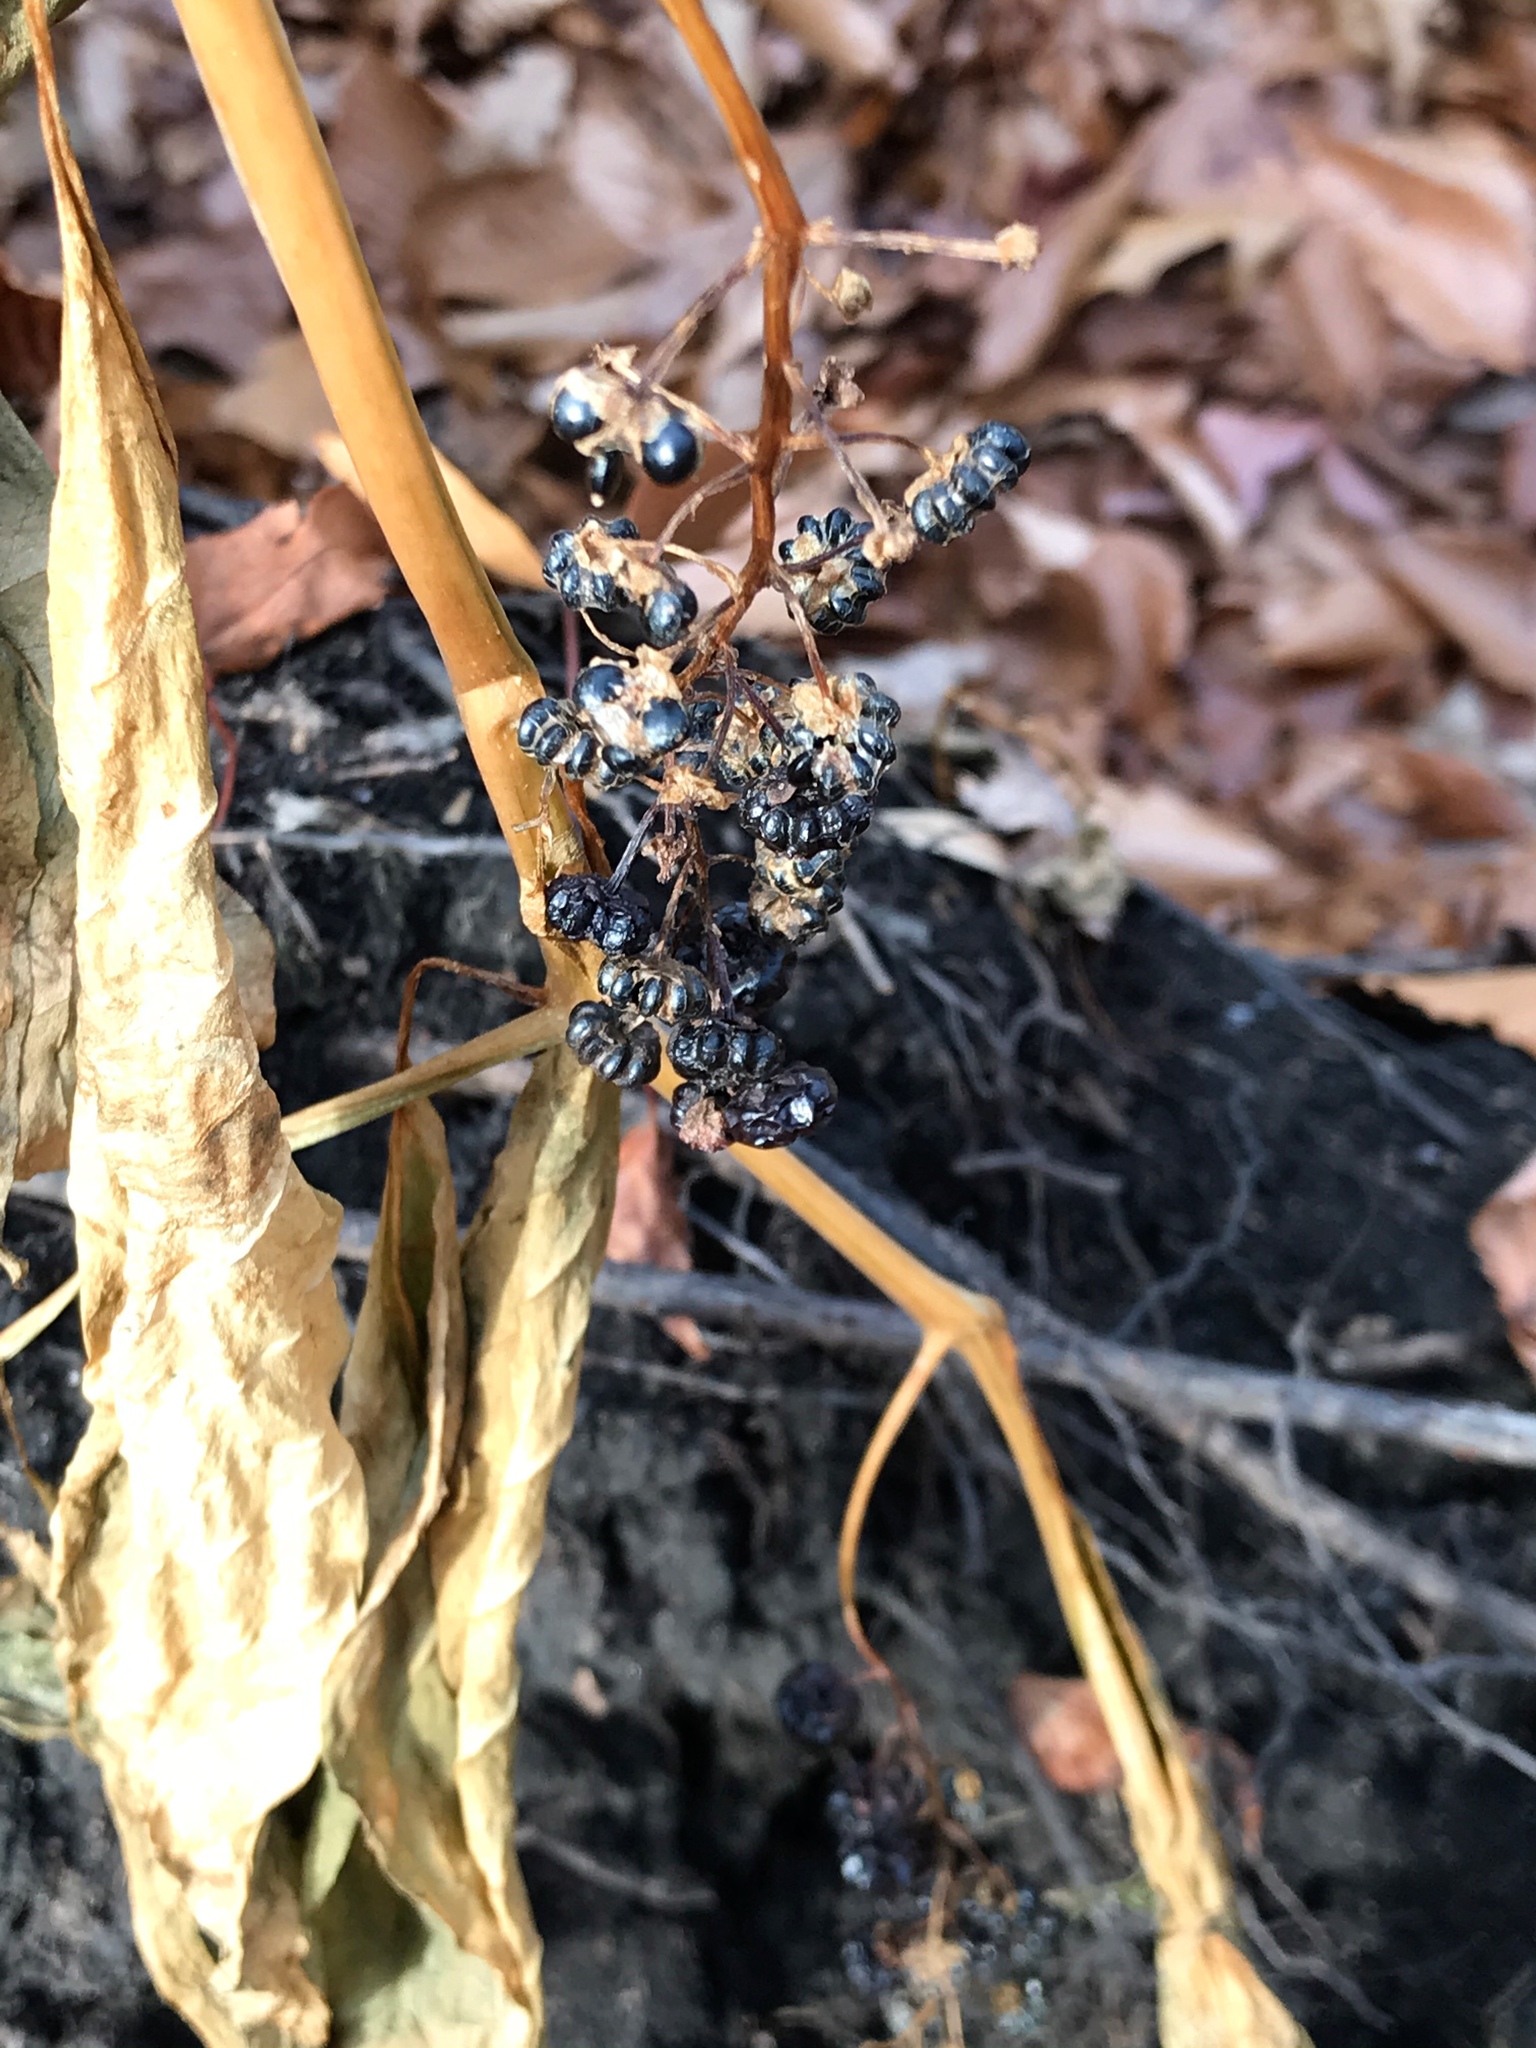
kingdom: Plantae
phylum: Tracheophyta
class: Magnoliopsida
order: Caryophyllales
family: Phytolaccaceae
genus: Phytolacca
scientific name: Phytolacca americana
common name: American pokeweed
